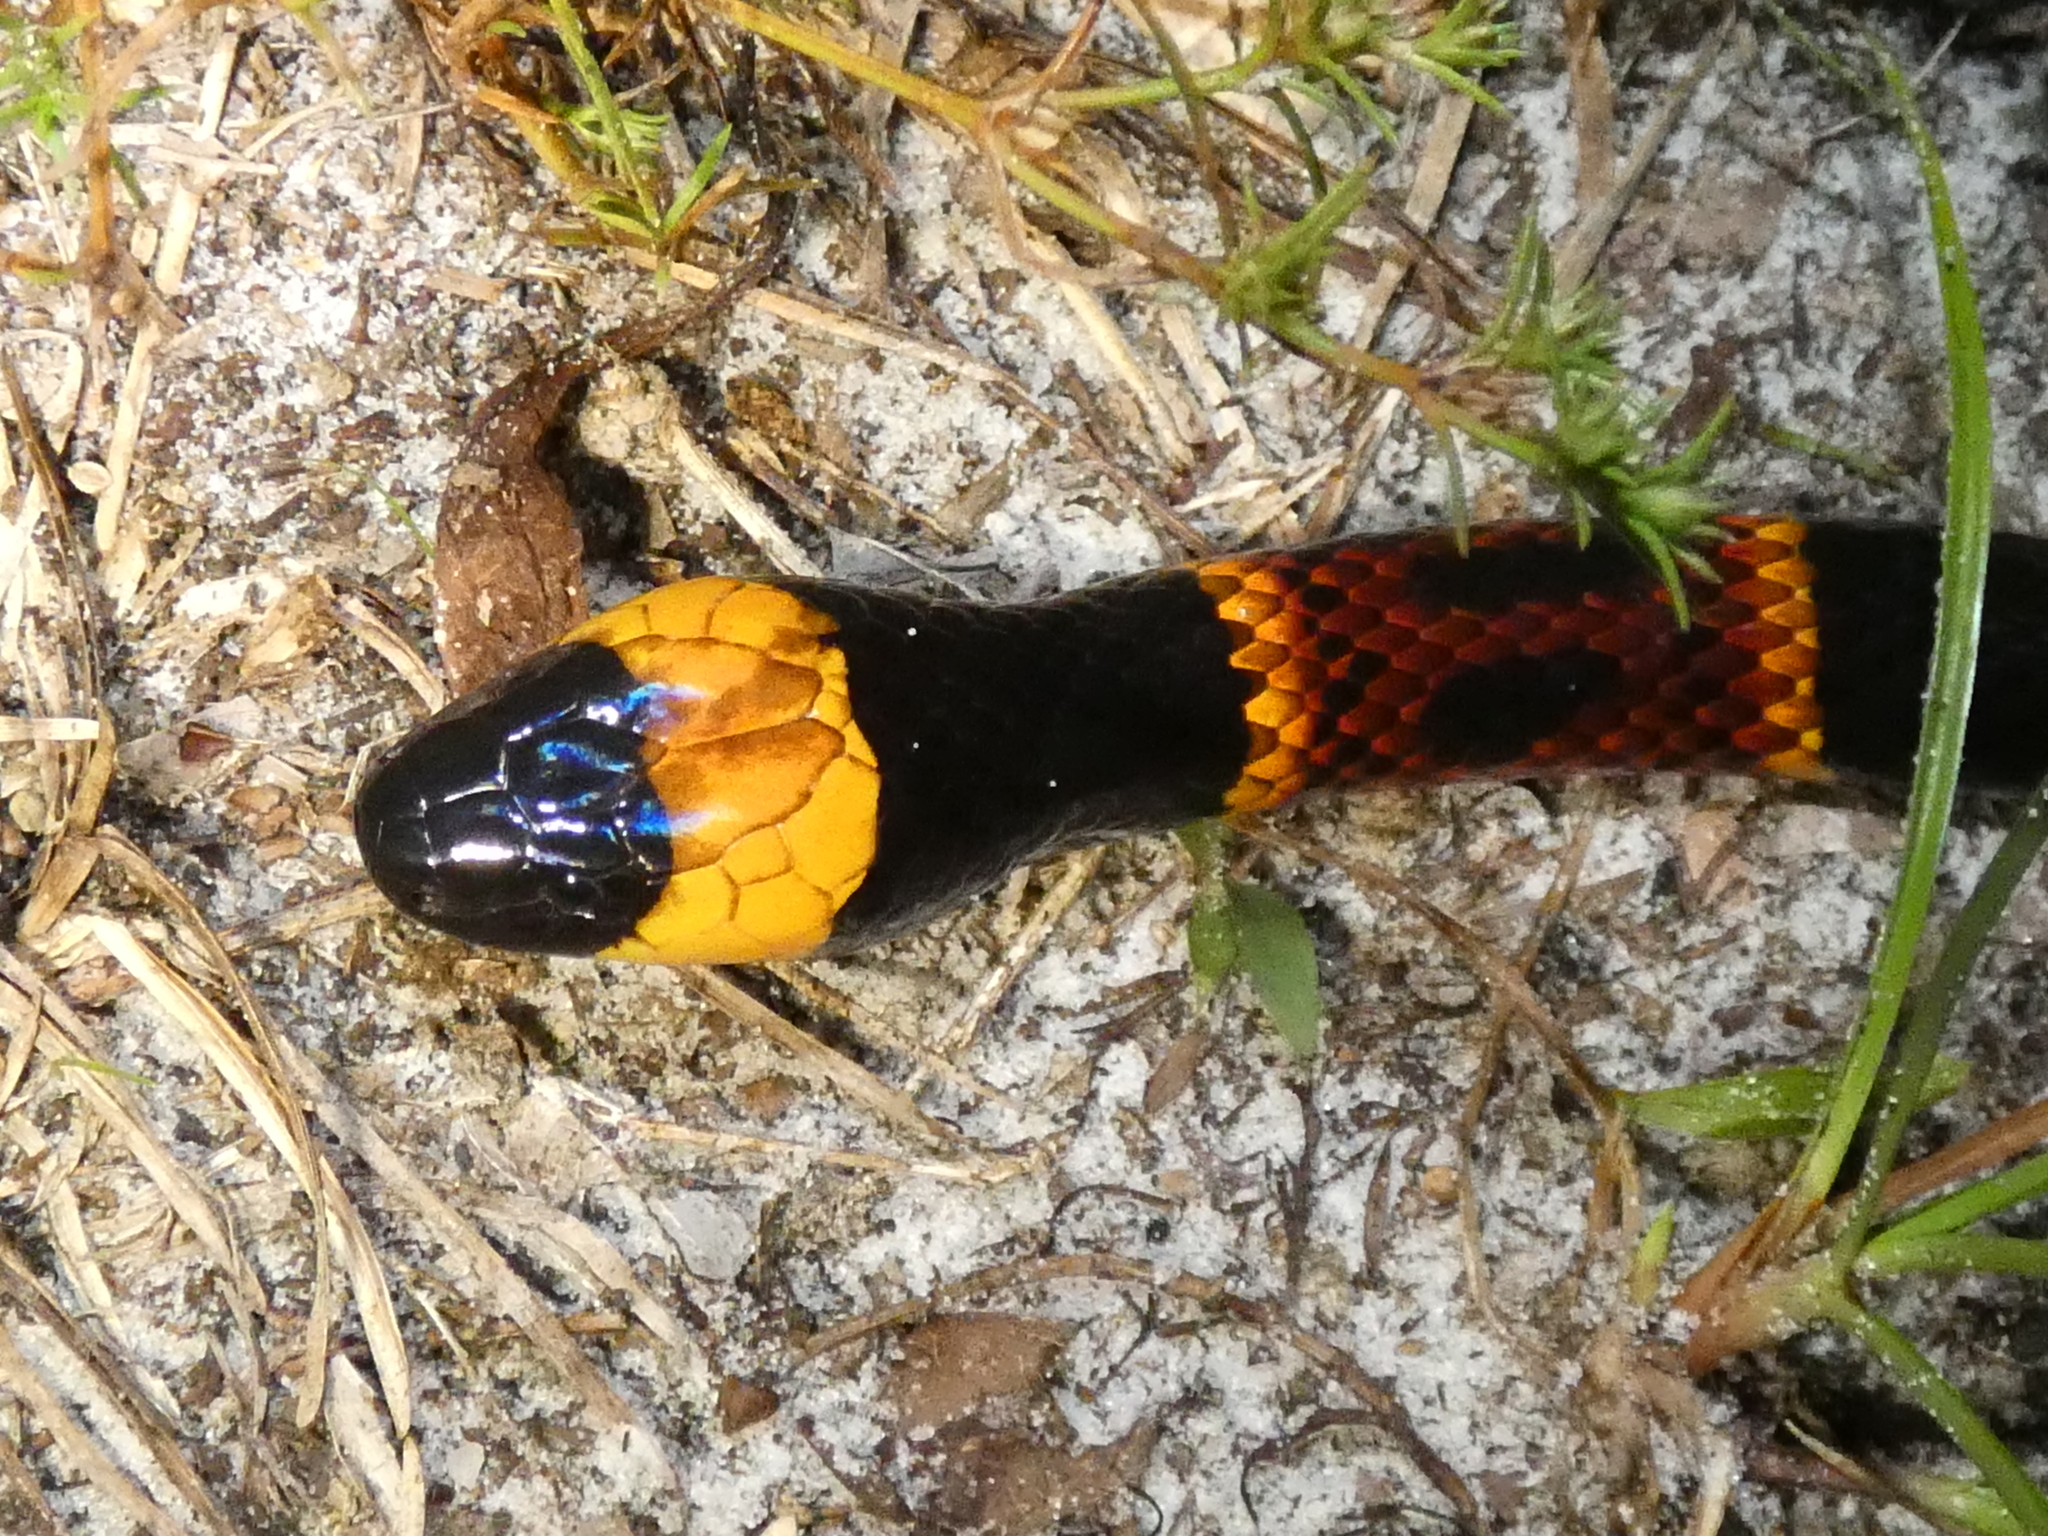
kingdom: Animalia
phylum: Chordata
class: Squamata
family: Elapidae
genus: Micrurus
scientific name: Micrurus fulvius
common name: Eastern coral snake
